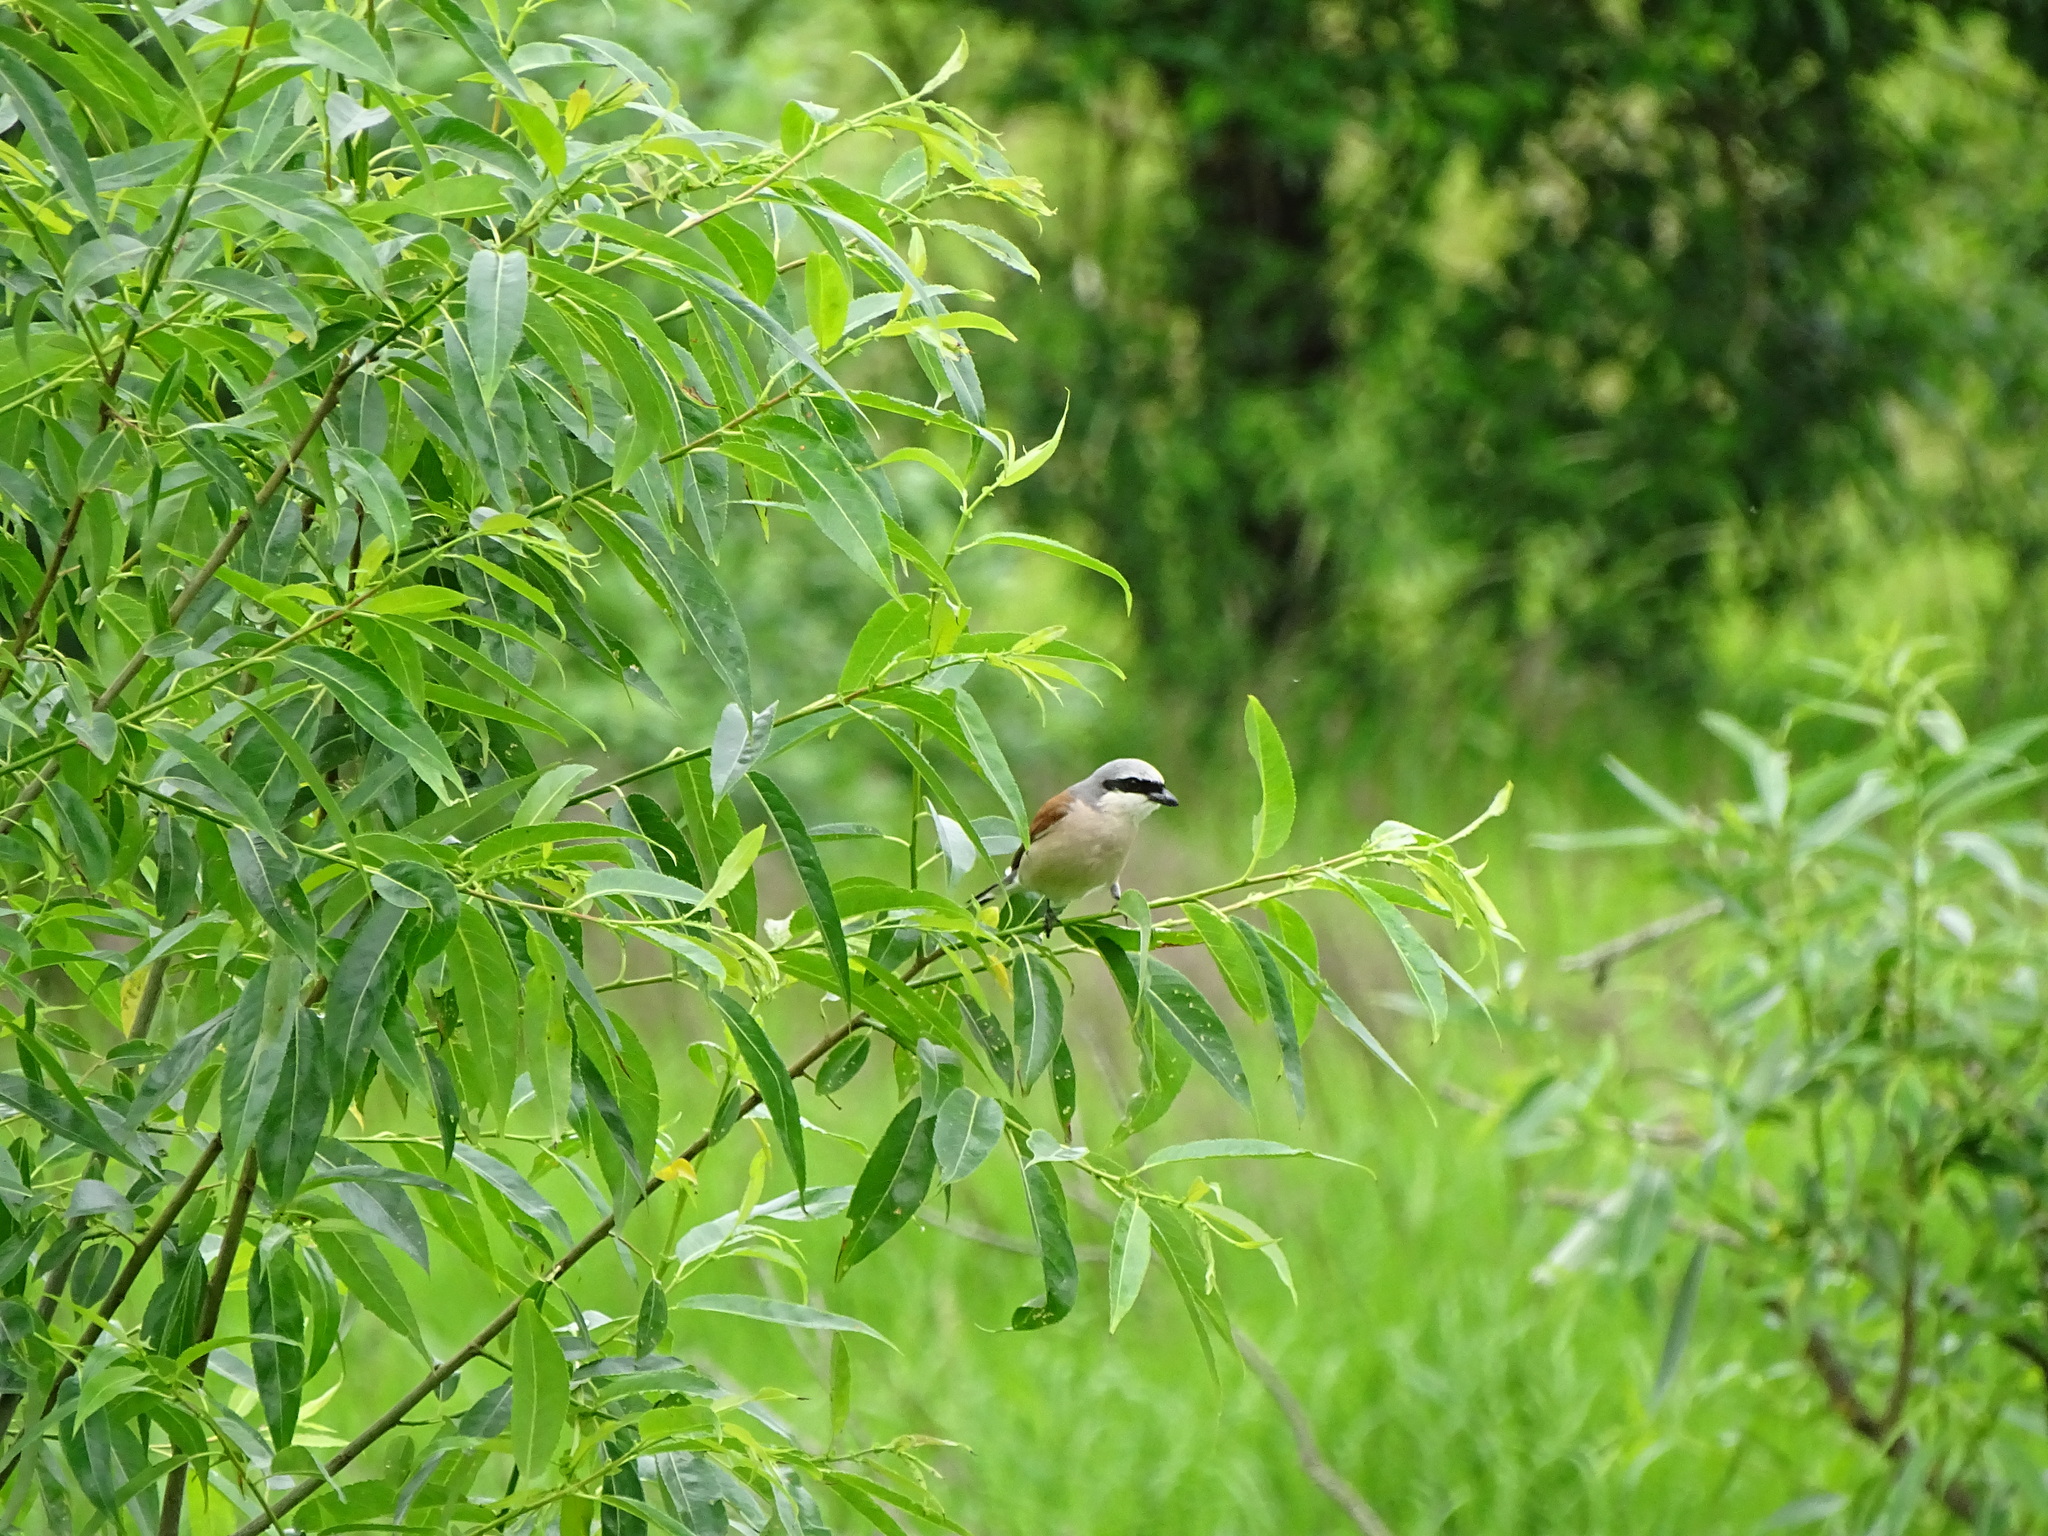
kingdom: Animalia
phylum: Chordata
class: Aves
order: Passeriformes
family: Laniidae
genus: Lanius
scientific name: Lanius collurio
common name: Red-backed shrike
